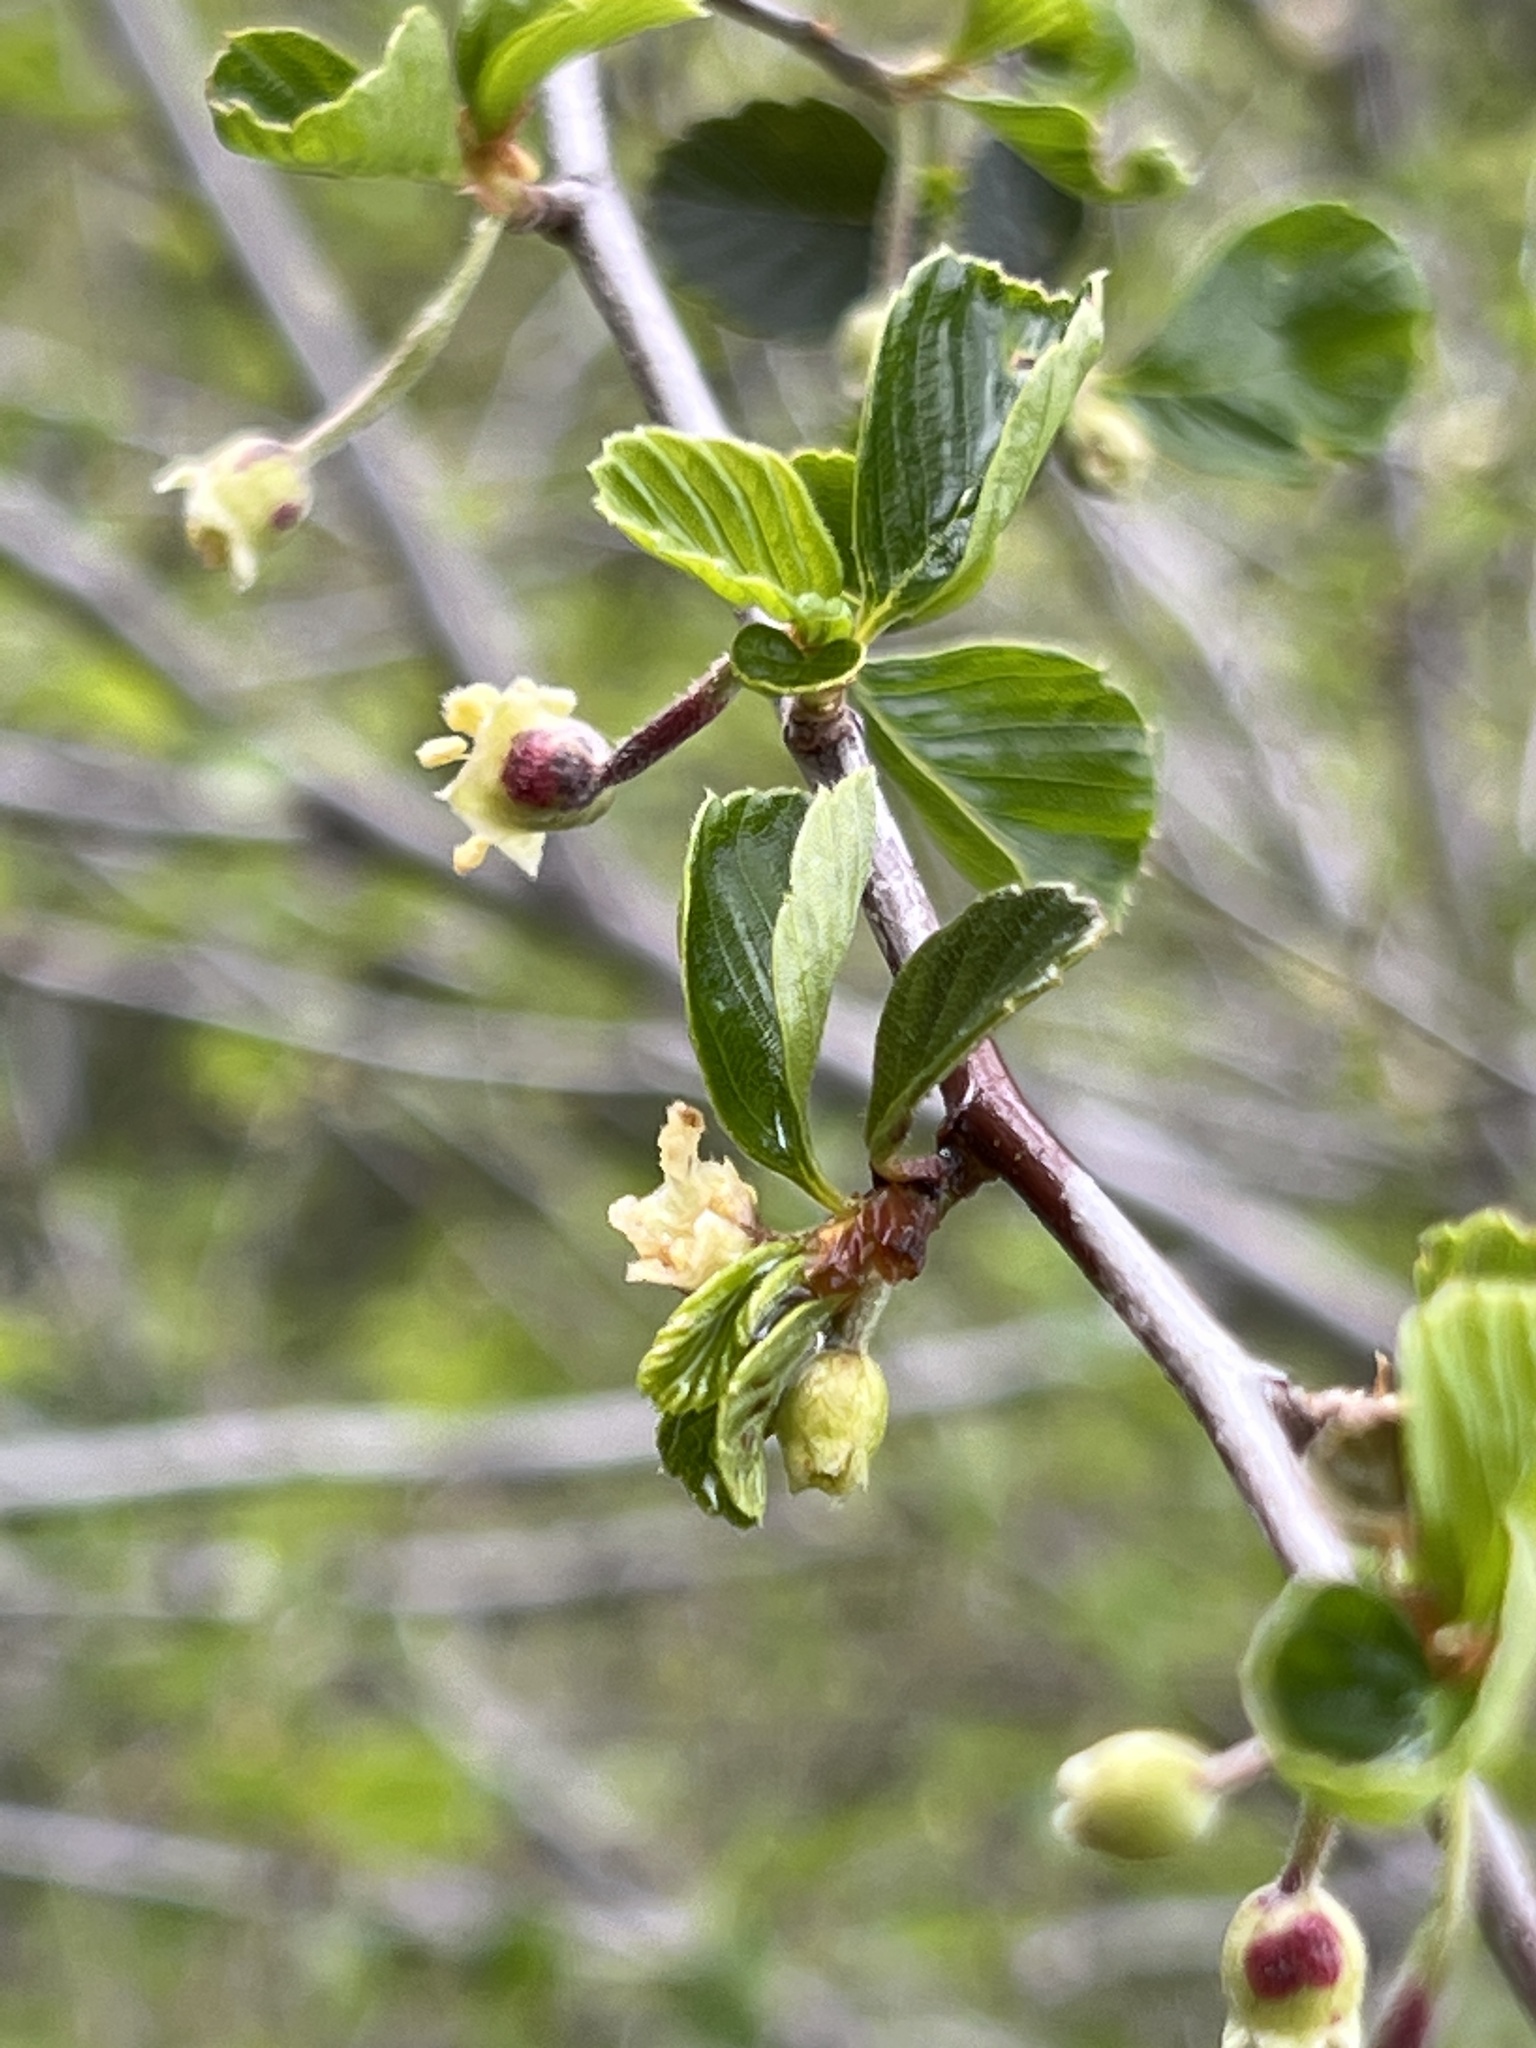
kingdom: Plantae
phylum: Tracheophyta
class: Magnoliopsida
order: Rosales
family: Rosaceae
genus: Cercocarpus
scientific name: Cercocarpus betuloides
